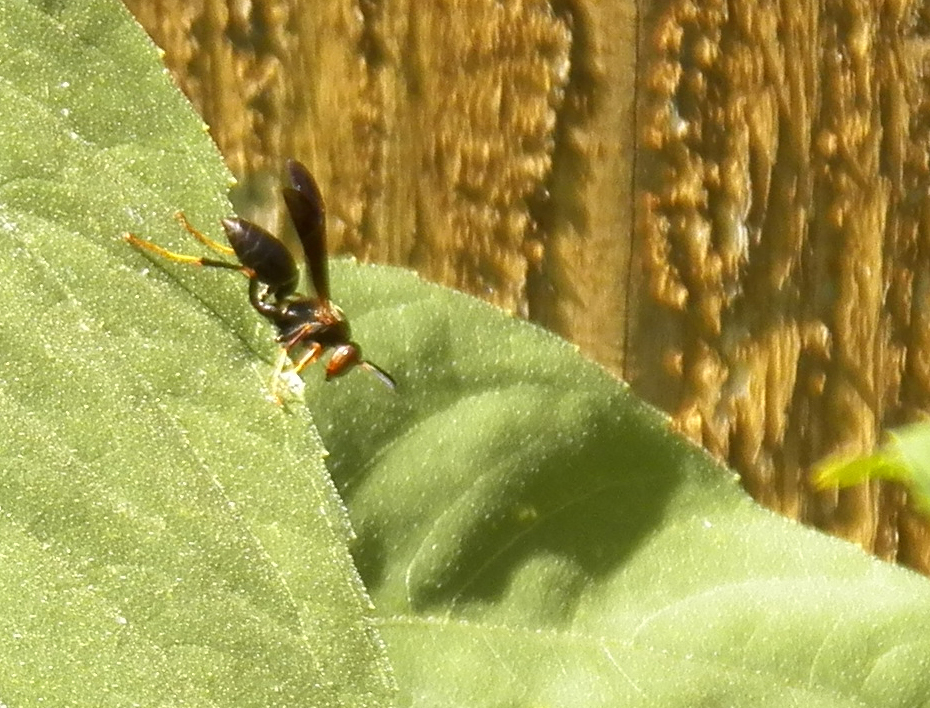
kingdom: Animalia
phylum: Arthropoda
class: Insecta
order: Hymenoptera
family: Eumenidae
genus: Polistes
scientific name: Polistes metricus
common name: Metric paper wasp
